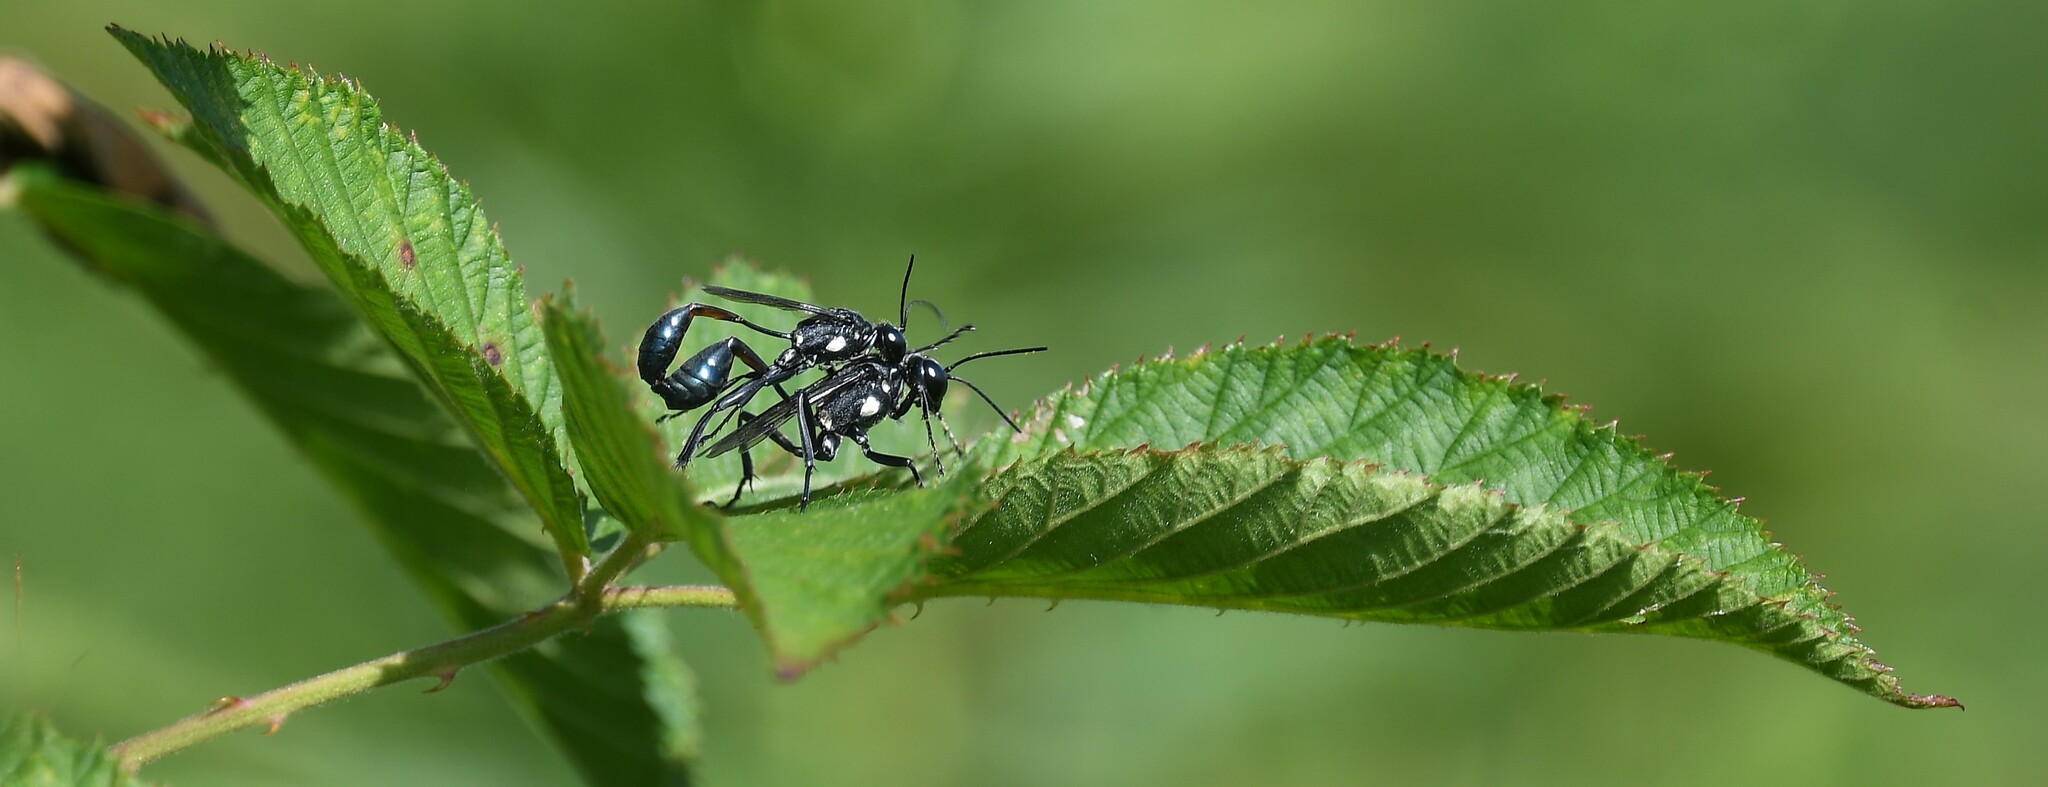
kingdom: Animalia
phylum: Arthropoda
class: Insecta
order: Hymenoptera
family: Sphecidae
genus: Eremnophila
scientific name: Eremnophila aureonotata
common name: Gold-marked thread-waisted wasp
